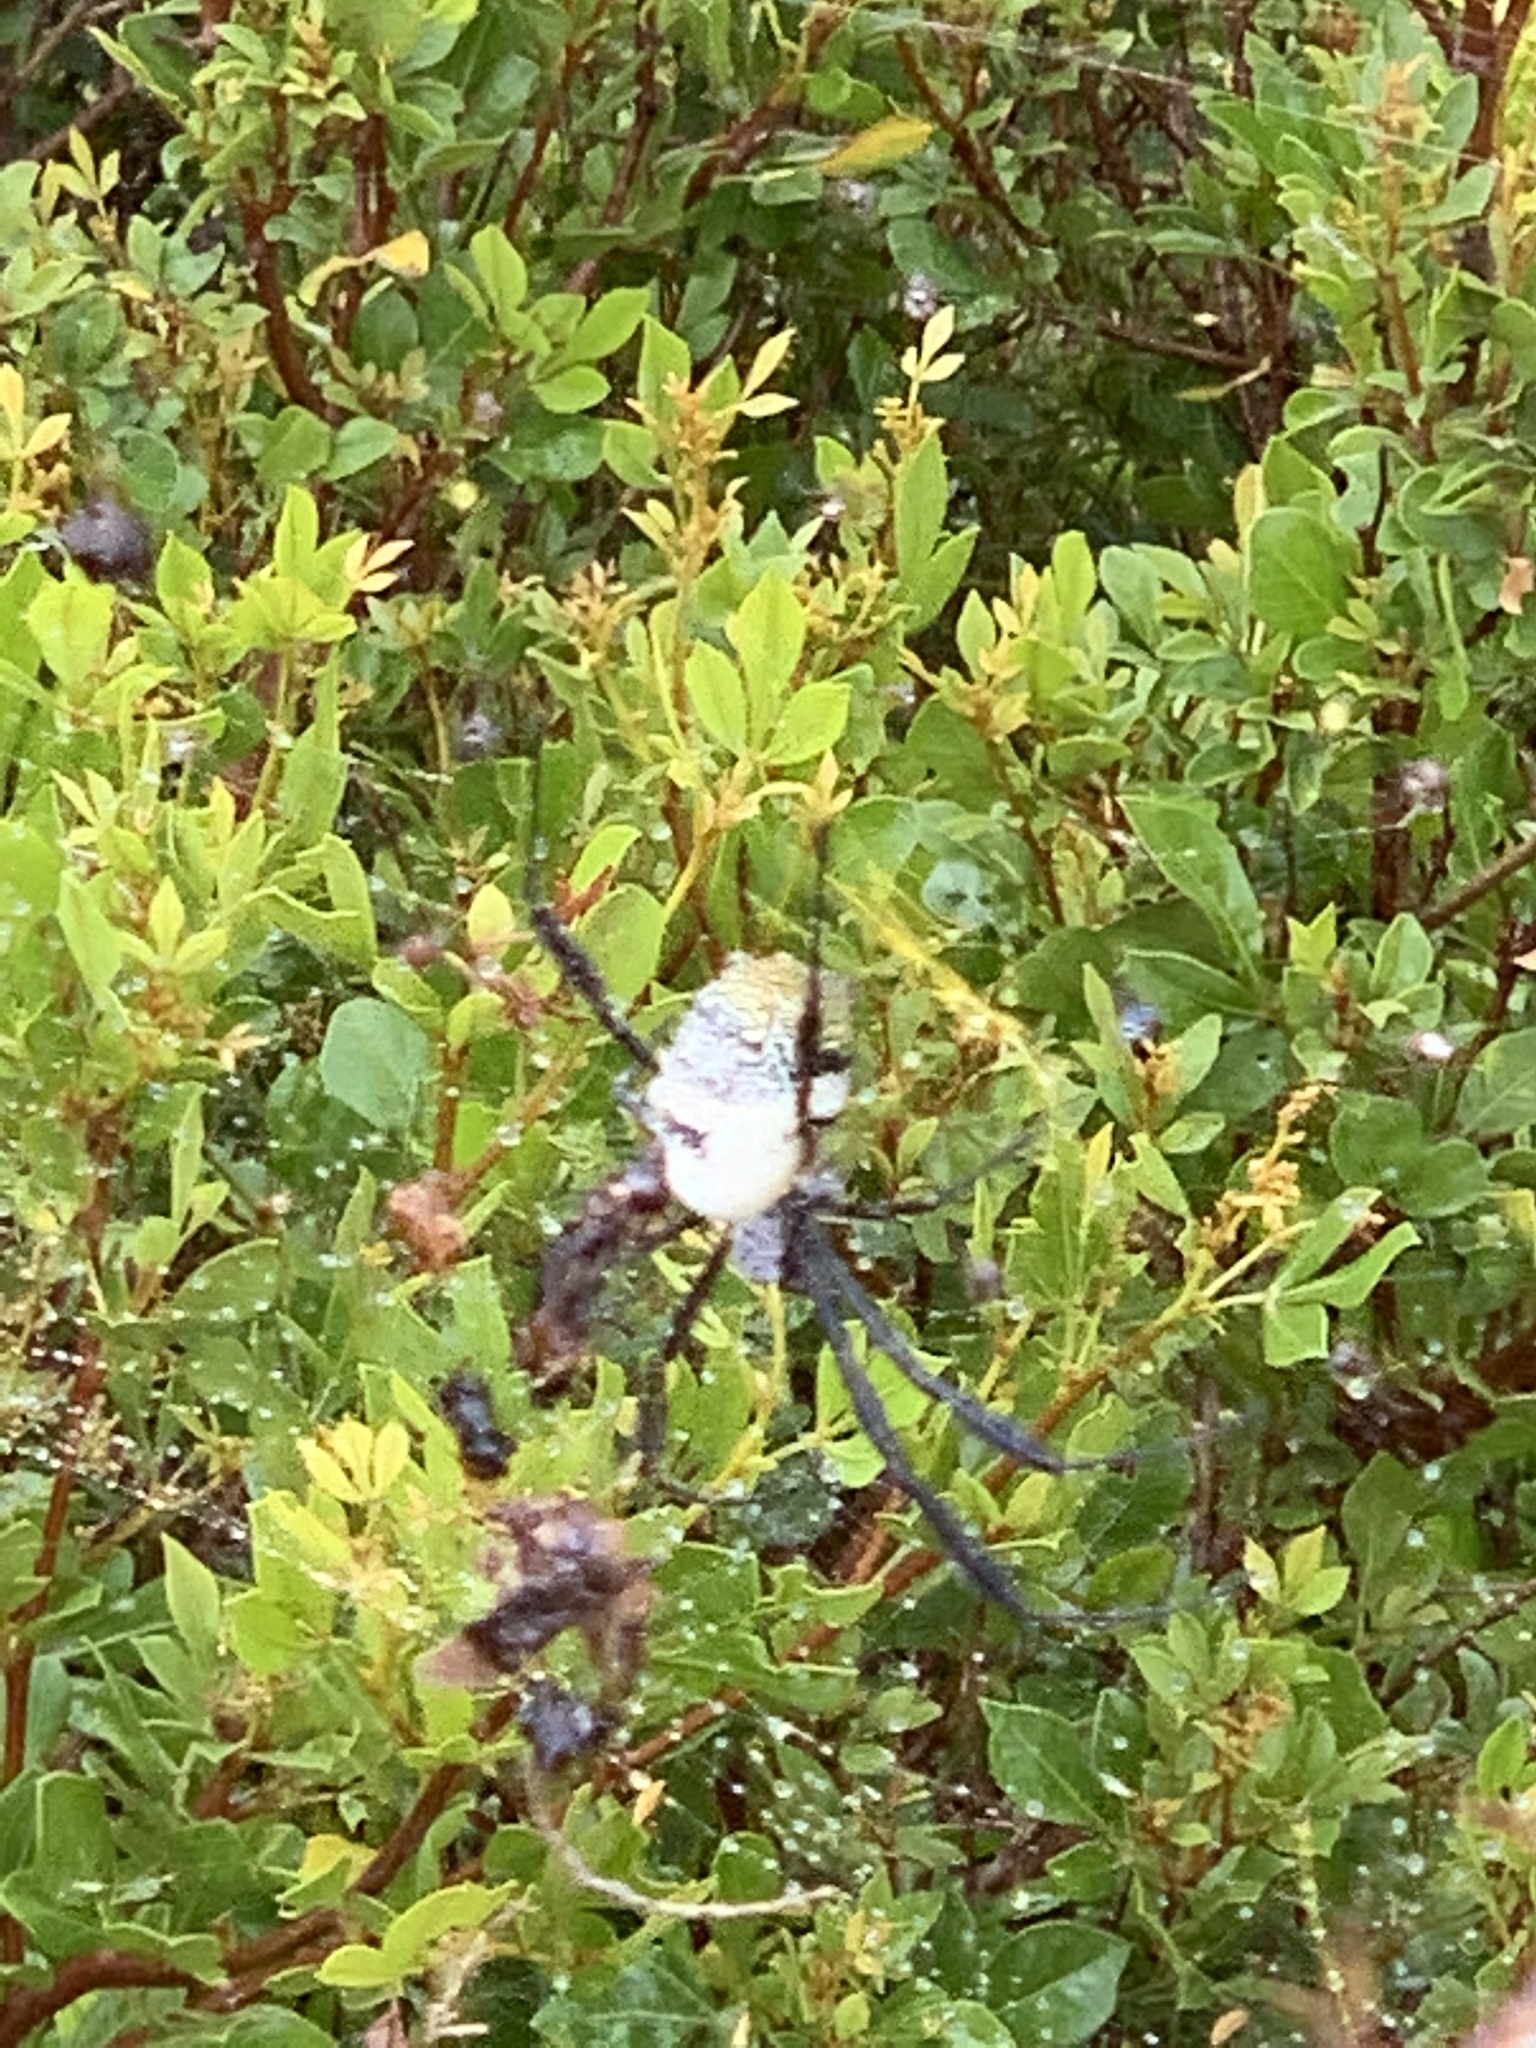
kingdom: Animalia
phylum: Arthropoda
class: Arachnida
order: Araneae
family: Araneidae
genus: Trichonephila
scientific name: Trichonephila fenestrata
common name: Hairy golden orb weaver
